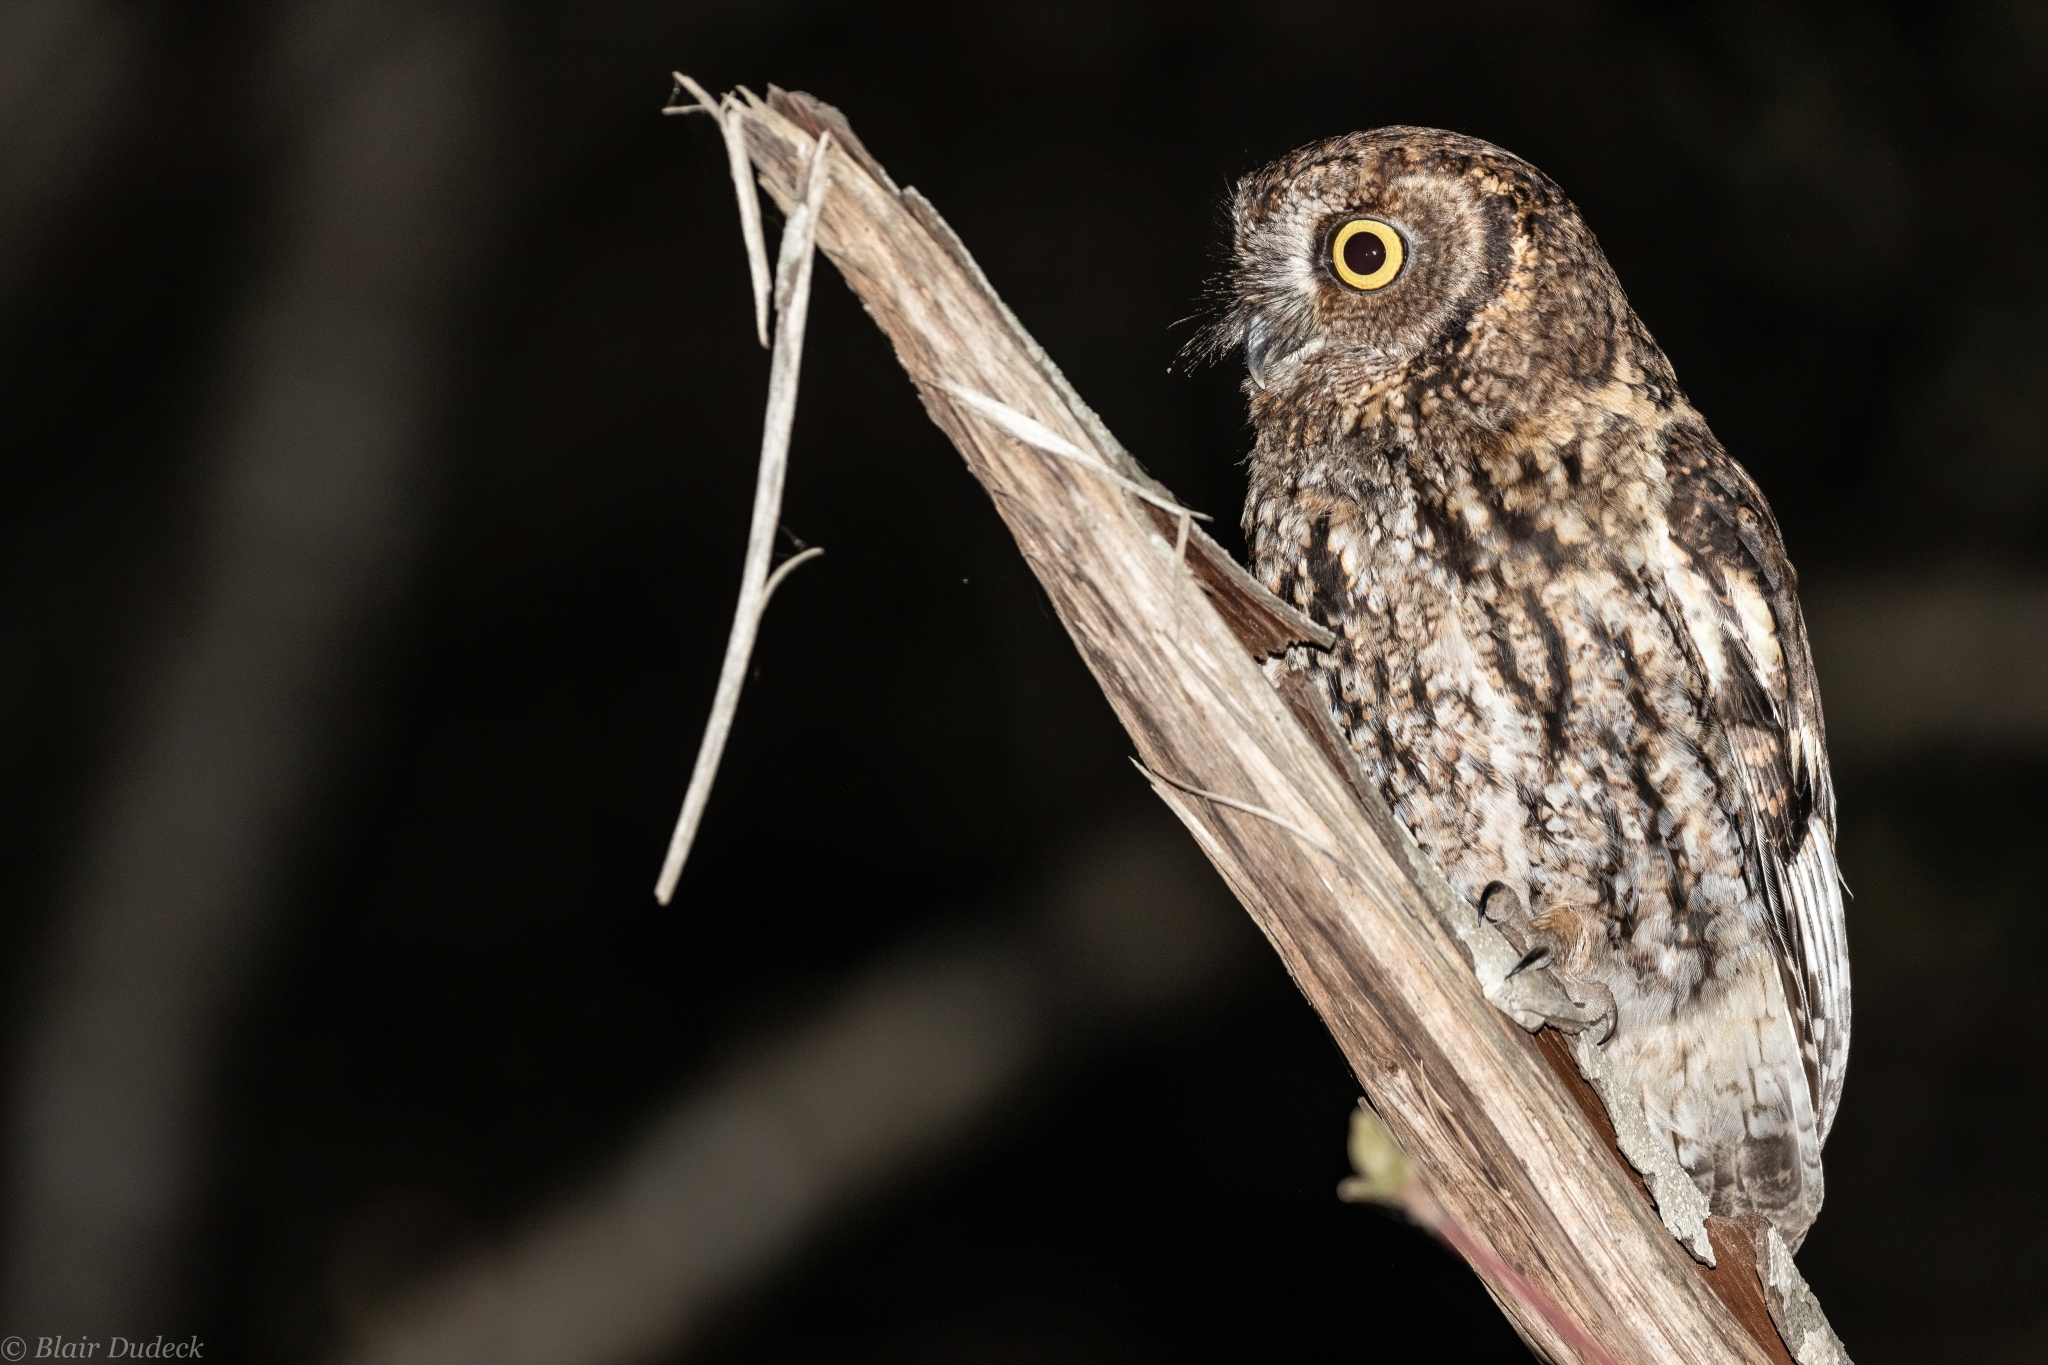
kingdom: Animalia
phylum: Chordata
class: Aves
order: Strigiformes
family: Strigidae
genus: Megascops
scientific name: Megascops kennicottii
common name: Western screech-owl
